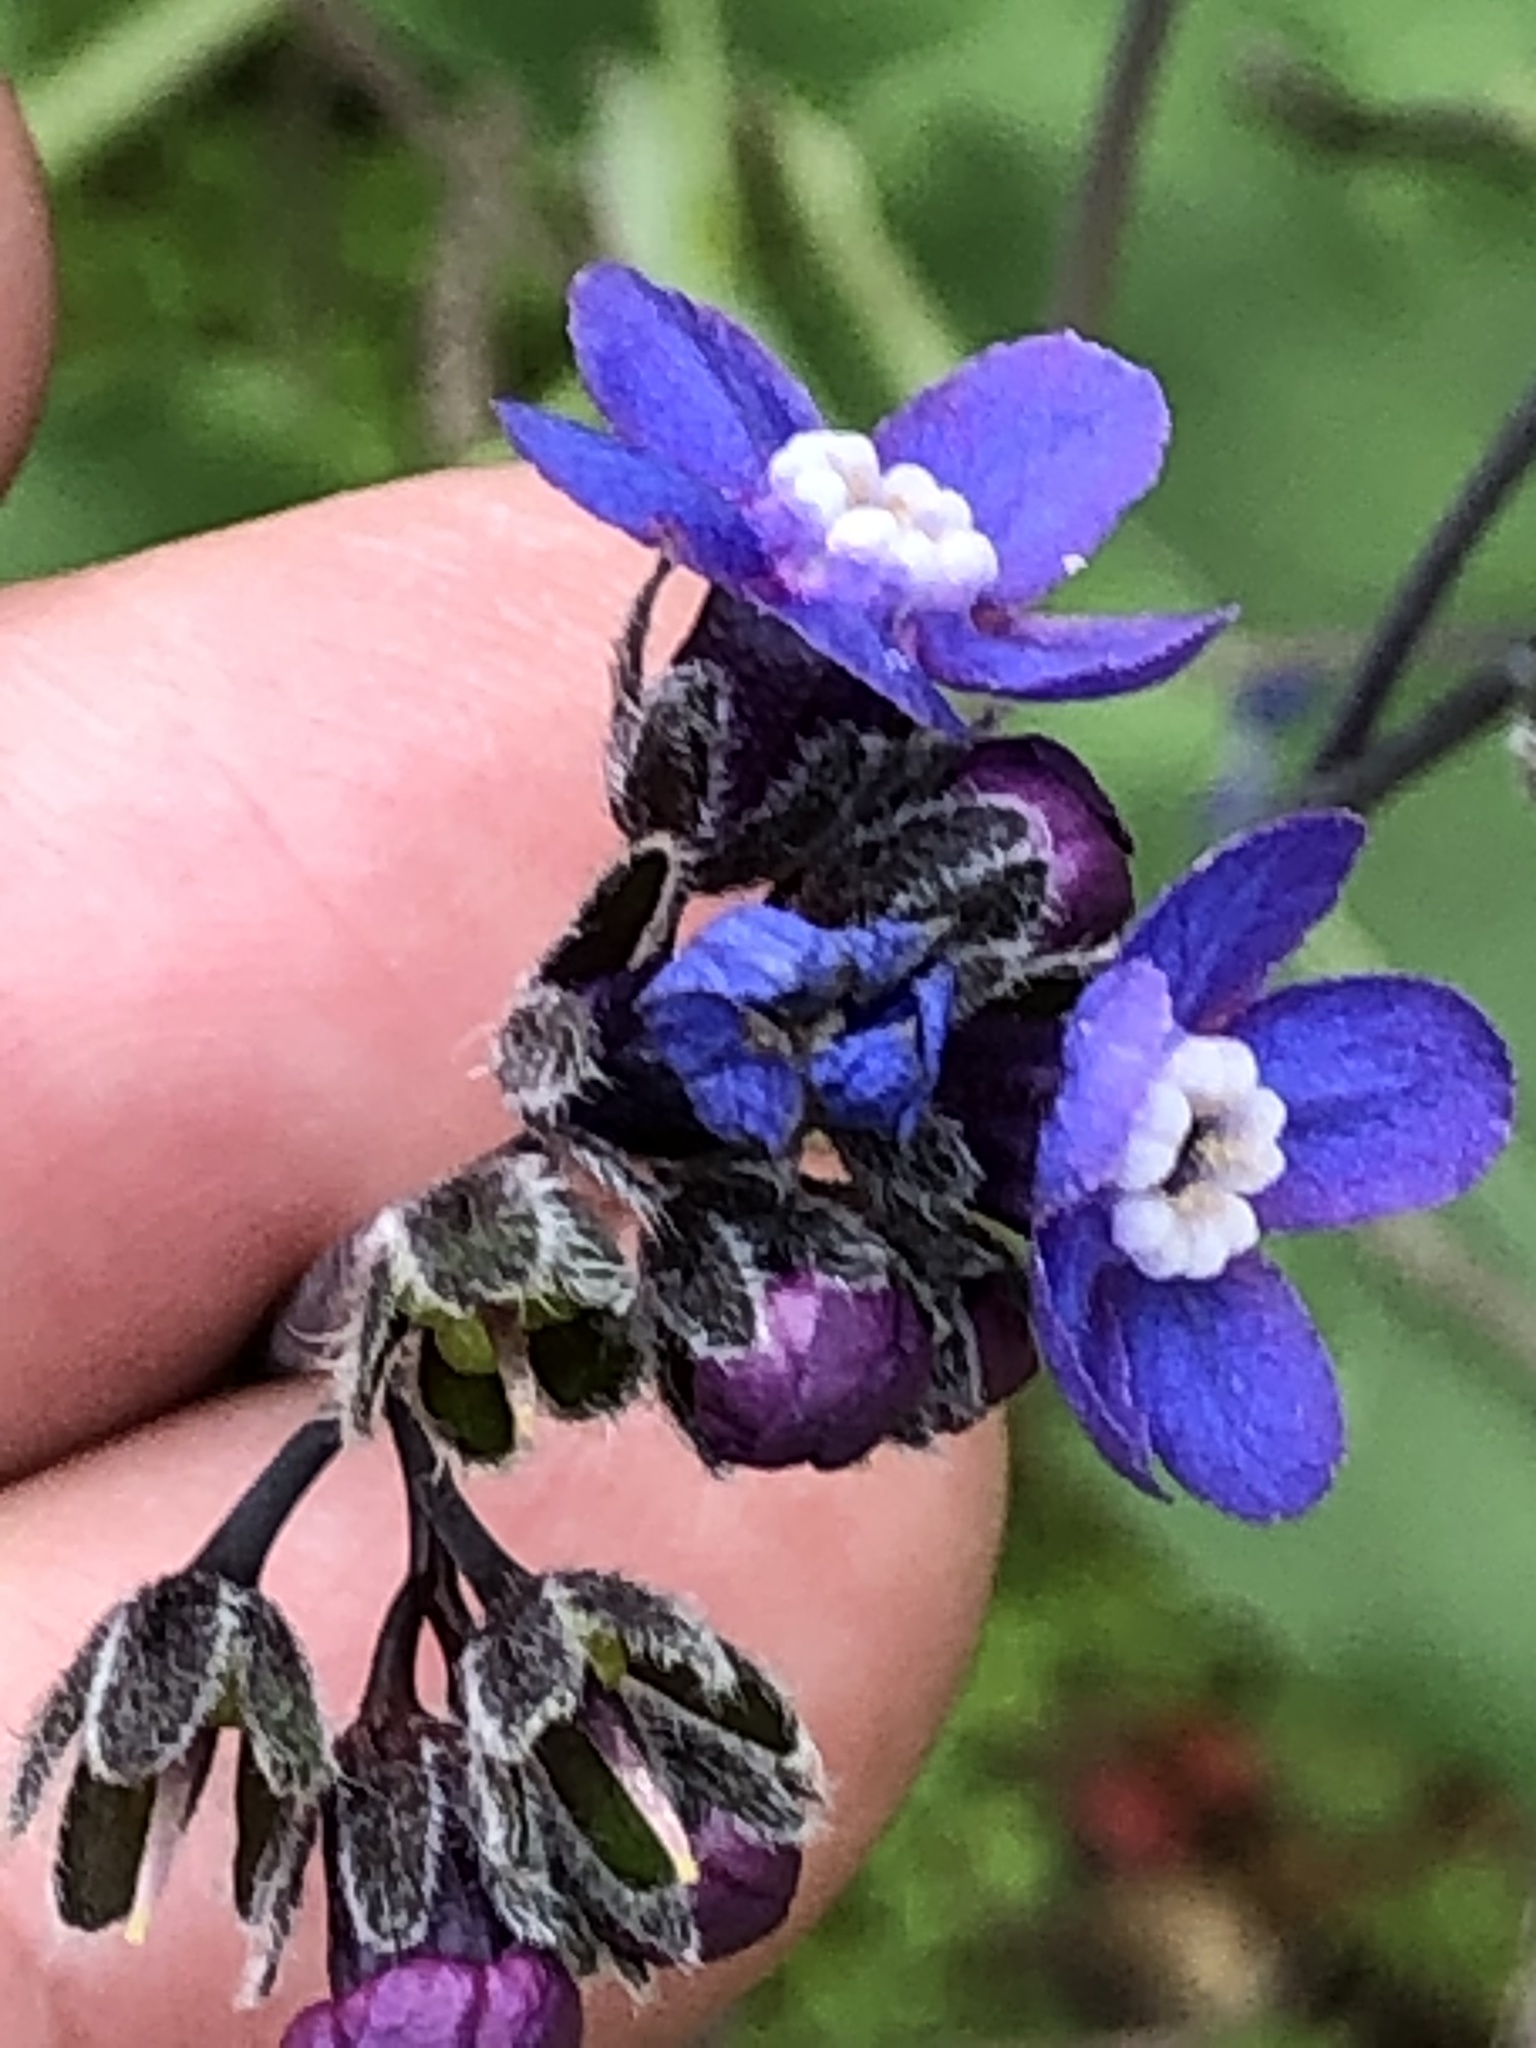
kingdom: Plantae
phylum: Tracheophyta
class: Magnoliopsida
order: Boraginales
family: Boraginaceae
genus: Adelinia
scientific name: Adelinia grande
